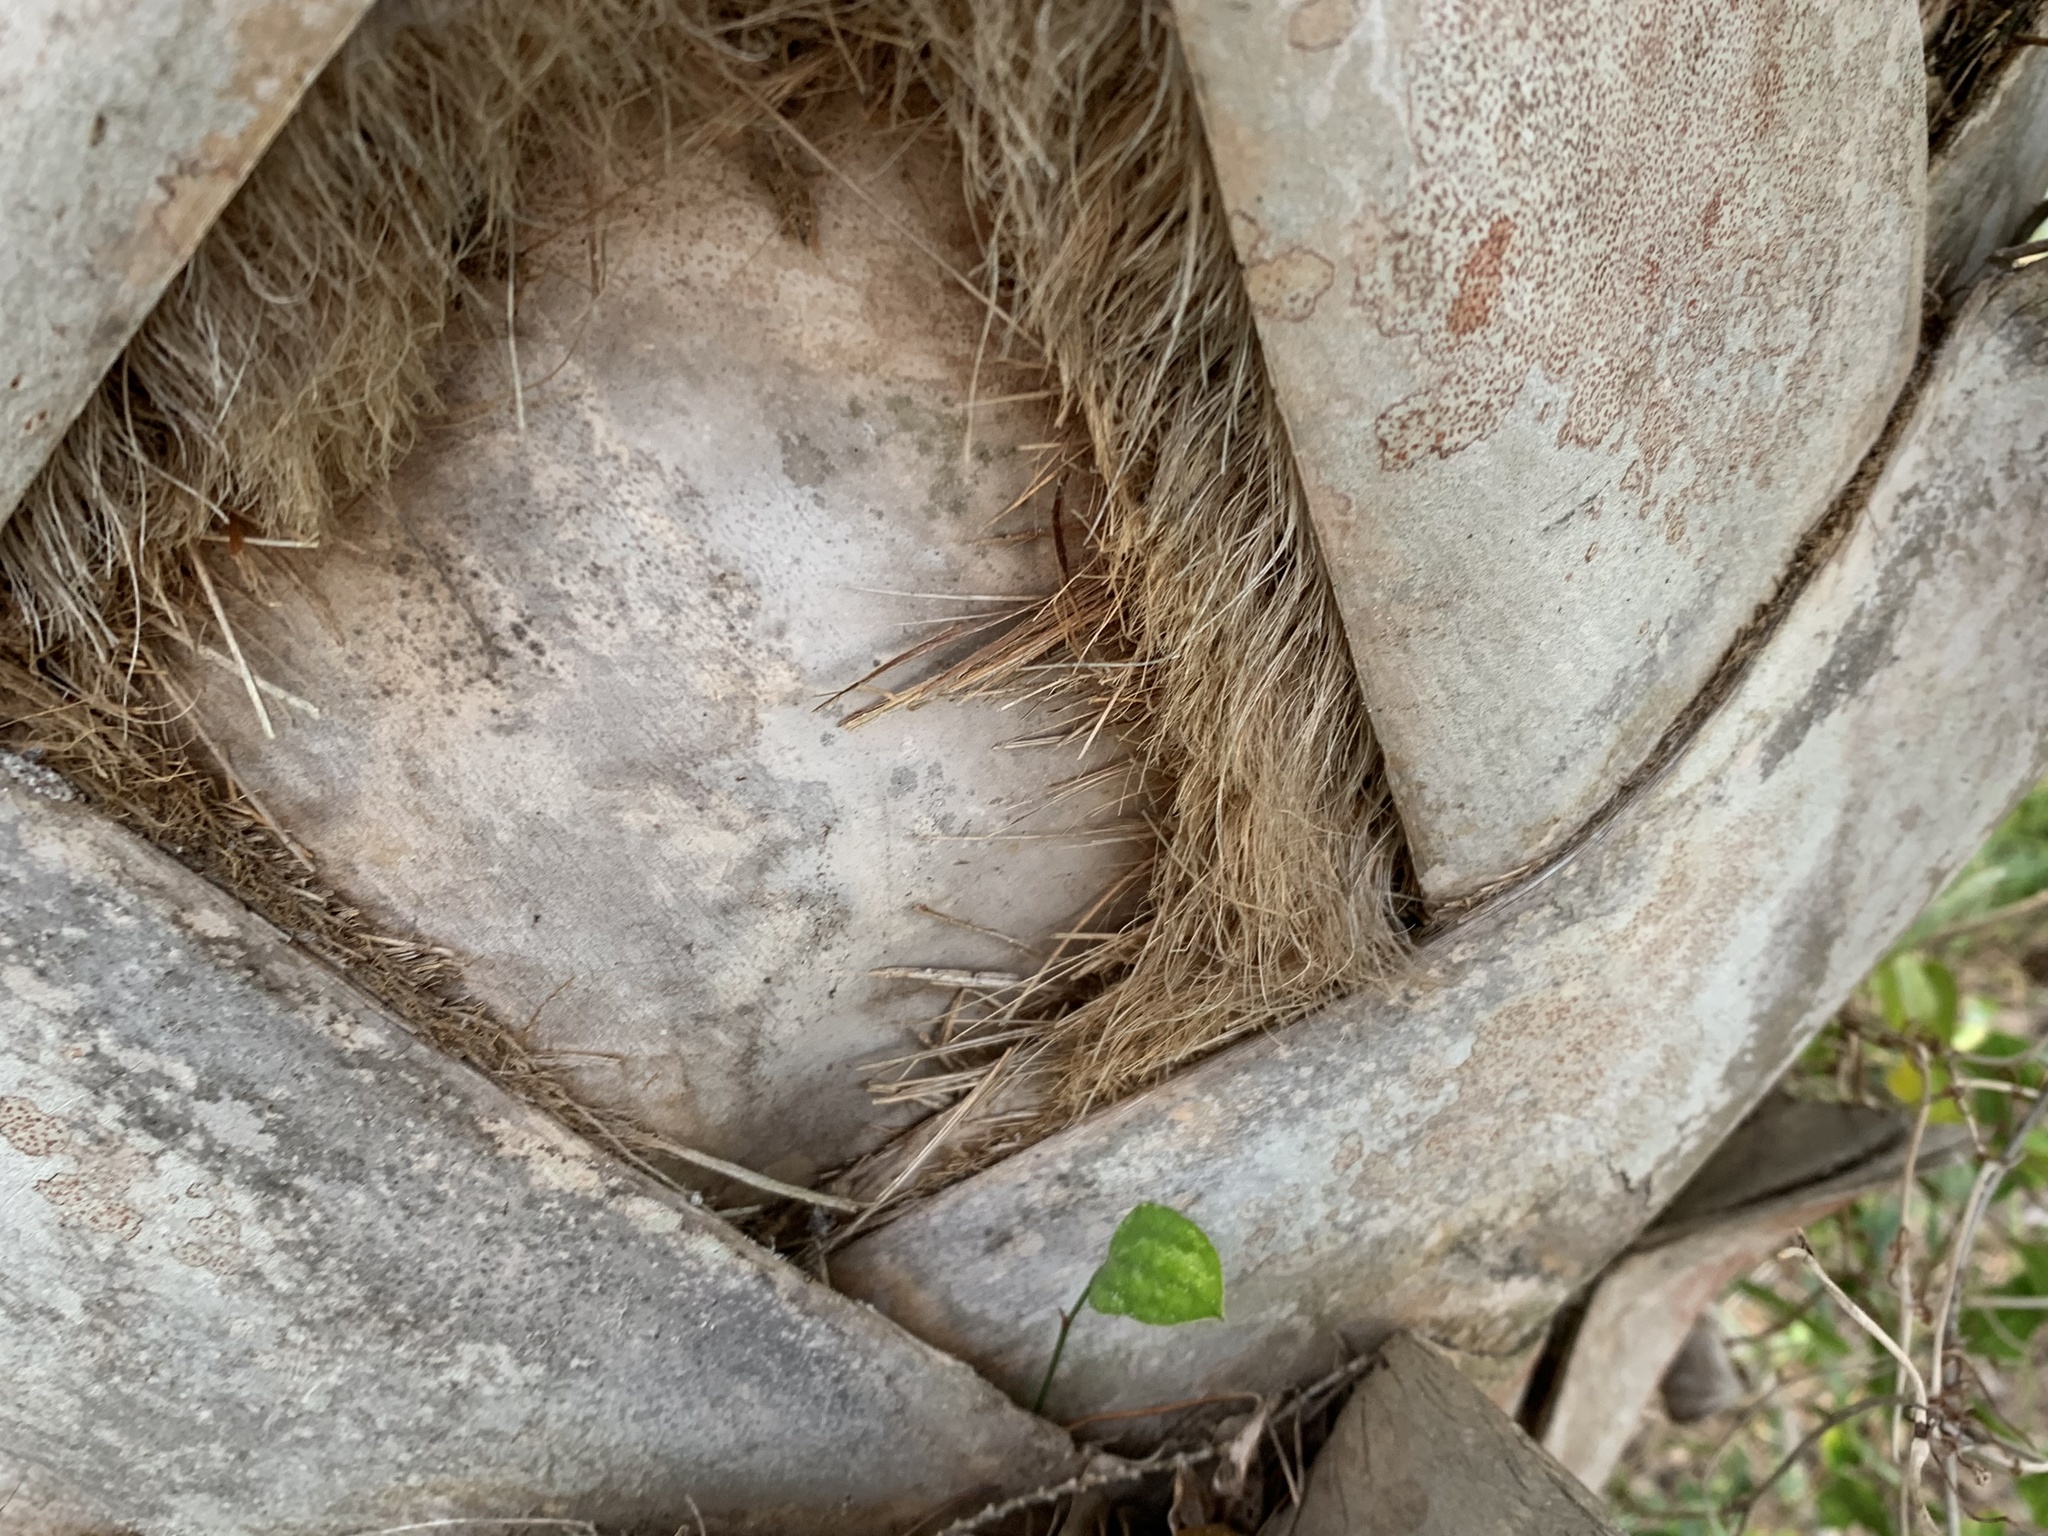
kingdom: Plantae
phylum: Tracheophyta
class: Liliopsida
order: Arecales
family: Arecaceae
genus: Sabal
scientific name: Sabal palmetto
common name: Blue palmetto
